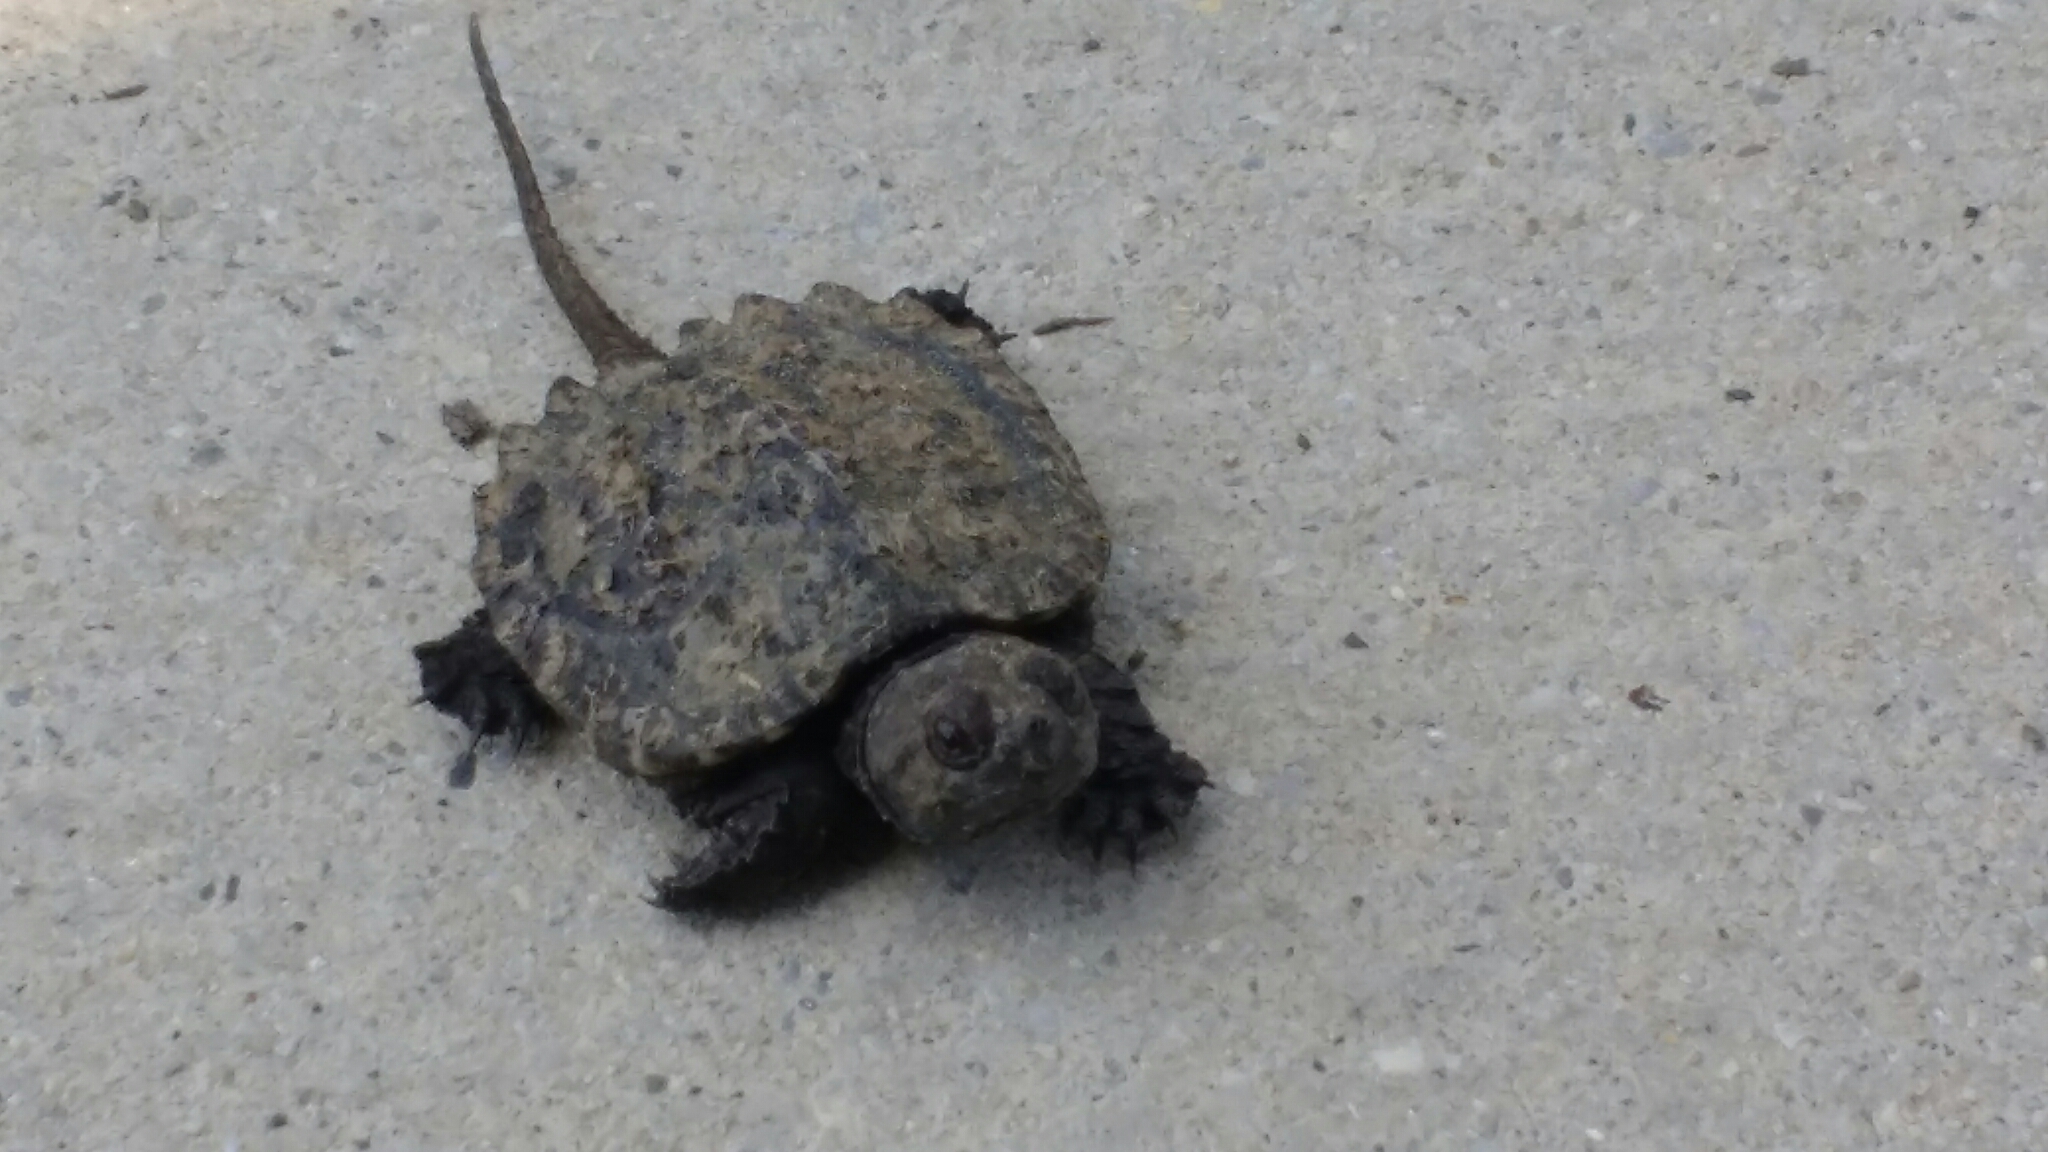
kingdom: Animalia
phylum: Chordata
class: Testudines
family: Chelydridae
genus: Chelydra
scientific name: Chelydra serpentina
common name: Common snapping turtle
